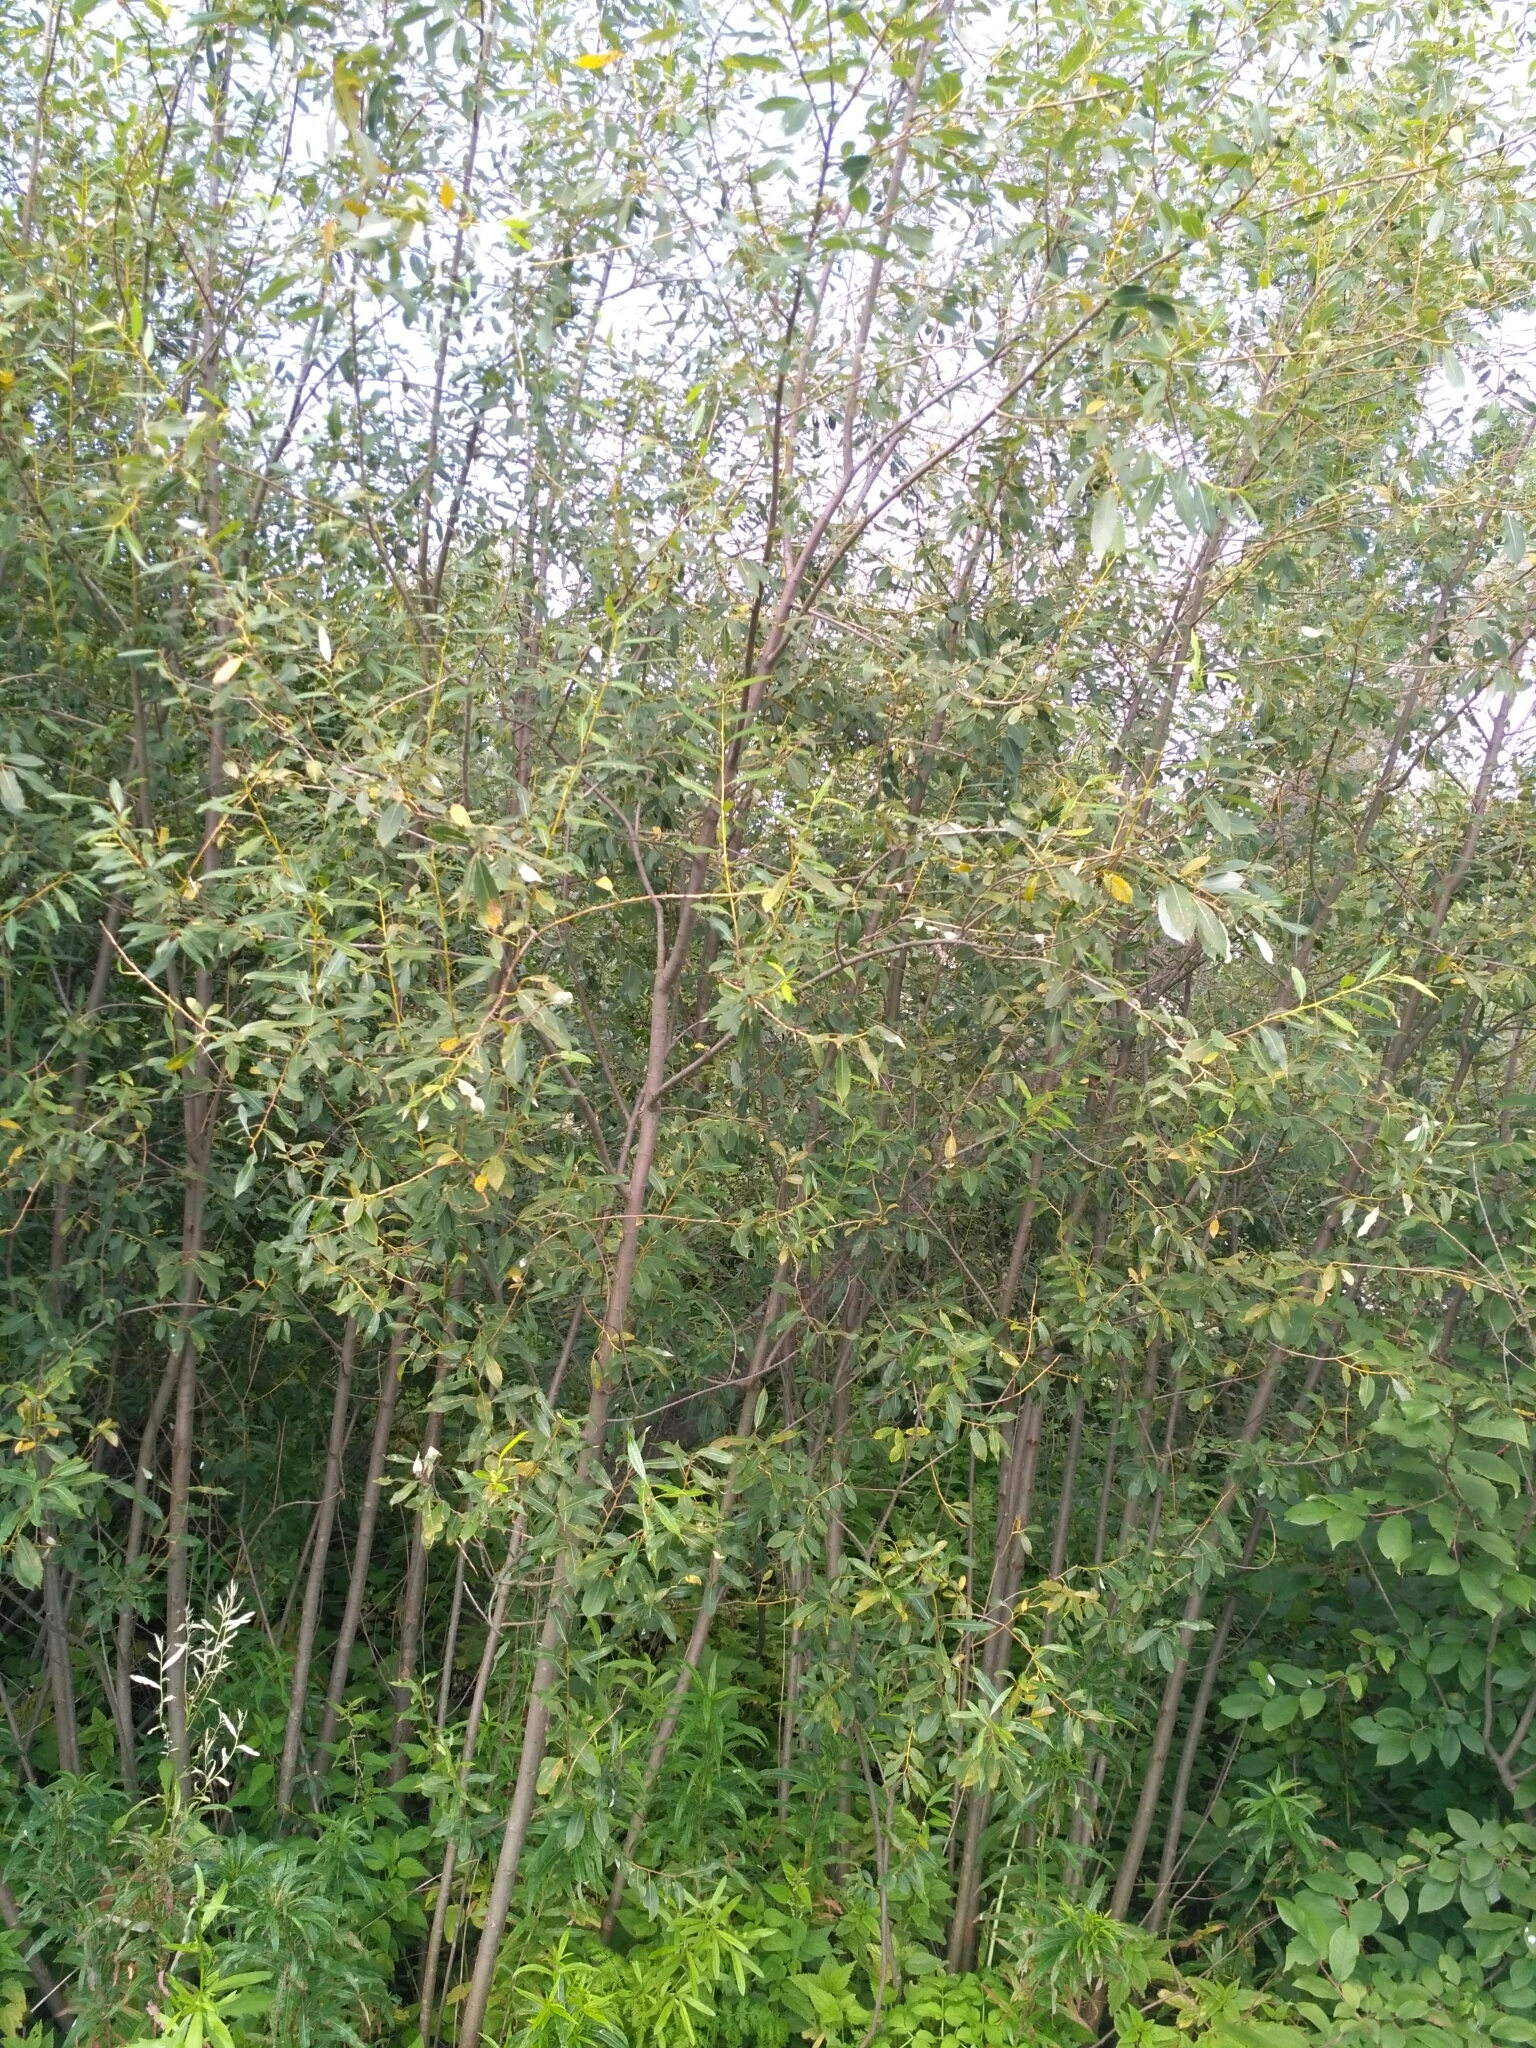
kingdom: Plantae
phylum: Tracheophyta
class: Magnoliopsida
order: Malpighiales
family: Salicaceae
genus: Salix
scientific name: Salix triandra
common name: Almond willow
